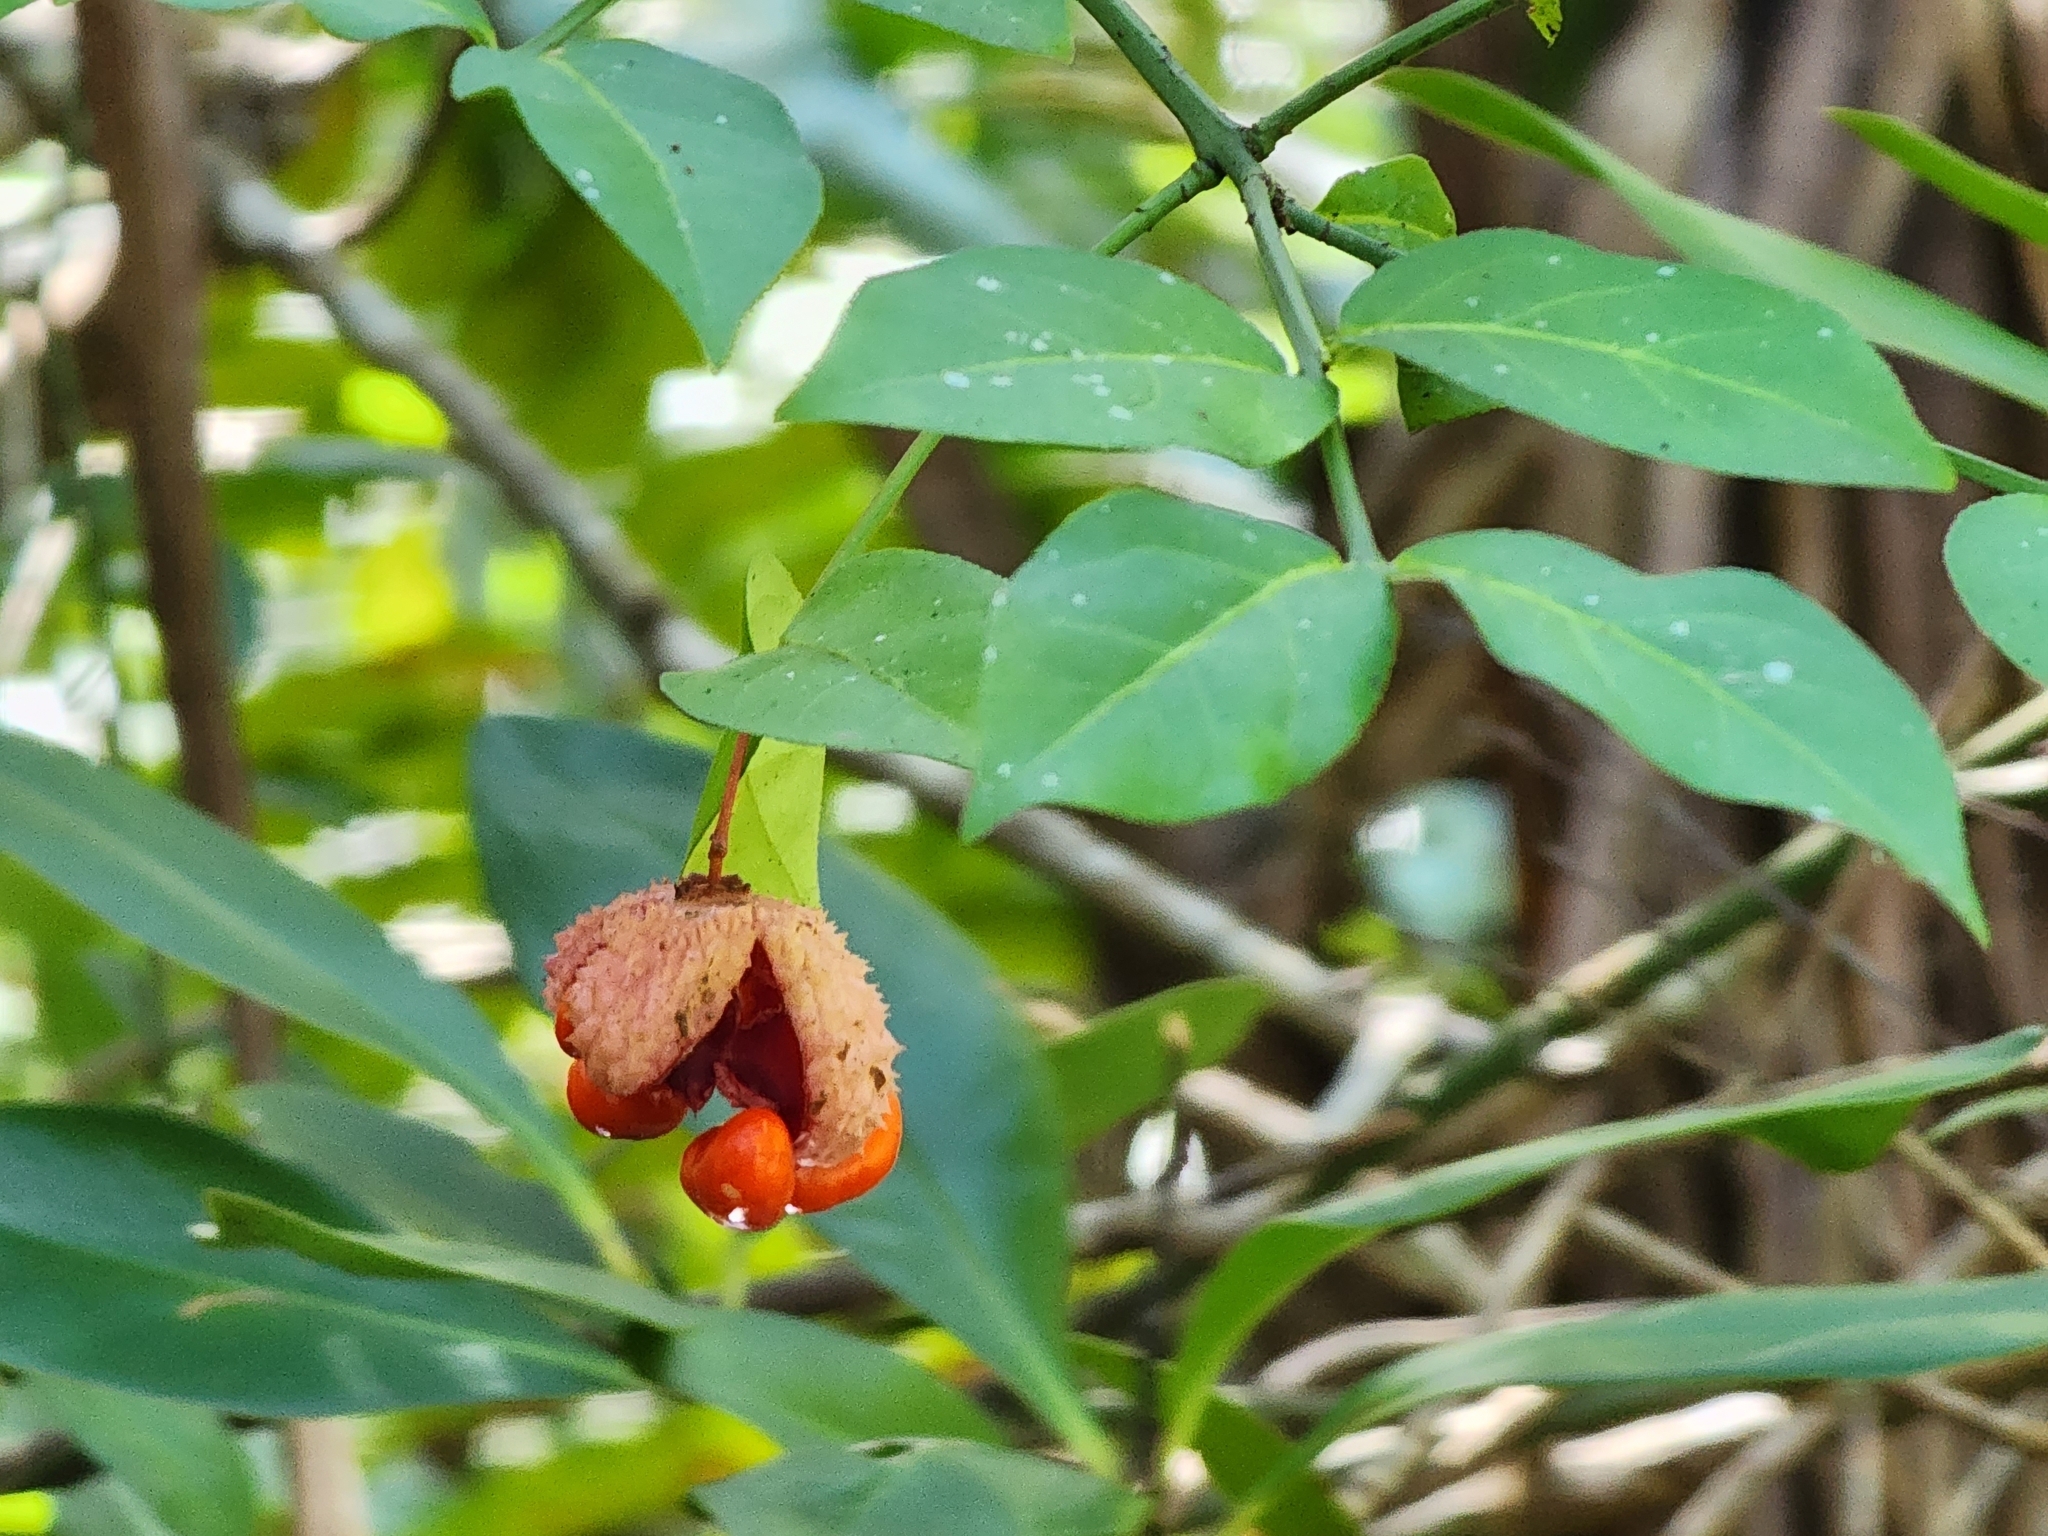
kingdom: Plantae
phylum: Tracheophyta
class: Magnoliopsida
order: Celastrales
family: Celastraceae
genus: Euonymus
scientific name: Euonymus americanus
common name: Bursting-heart
